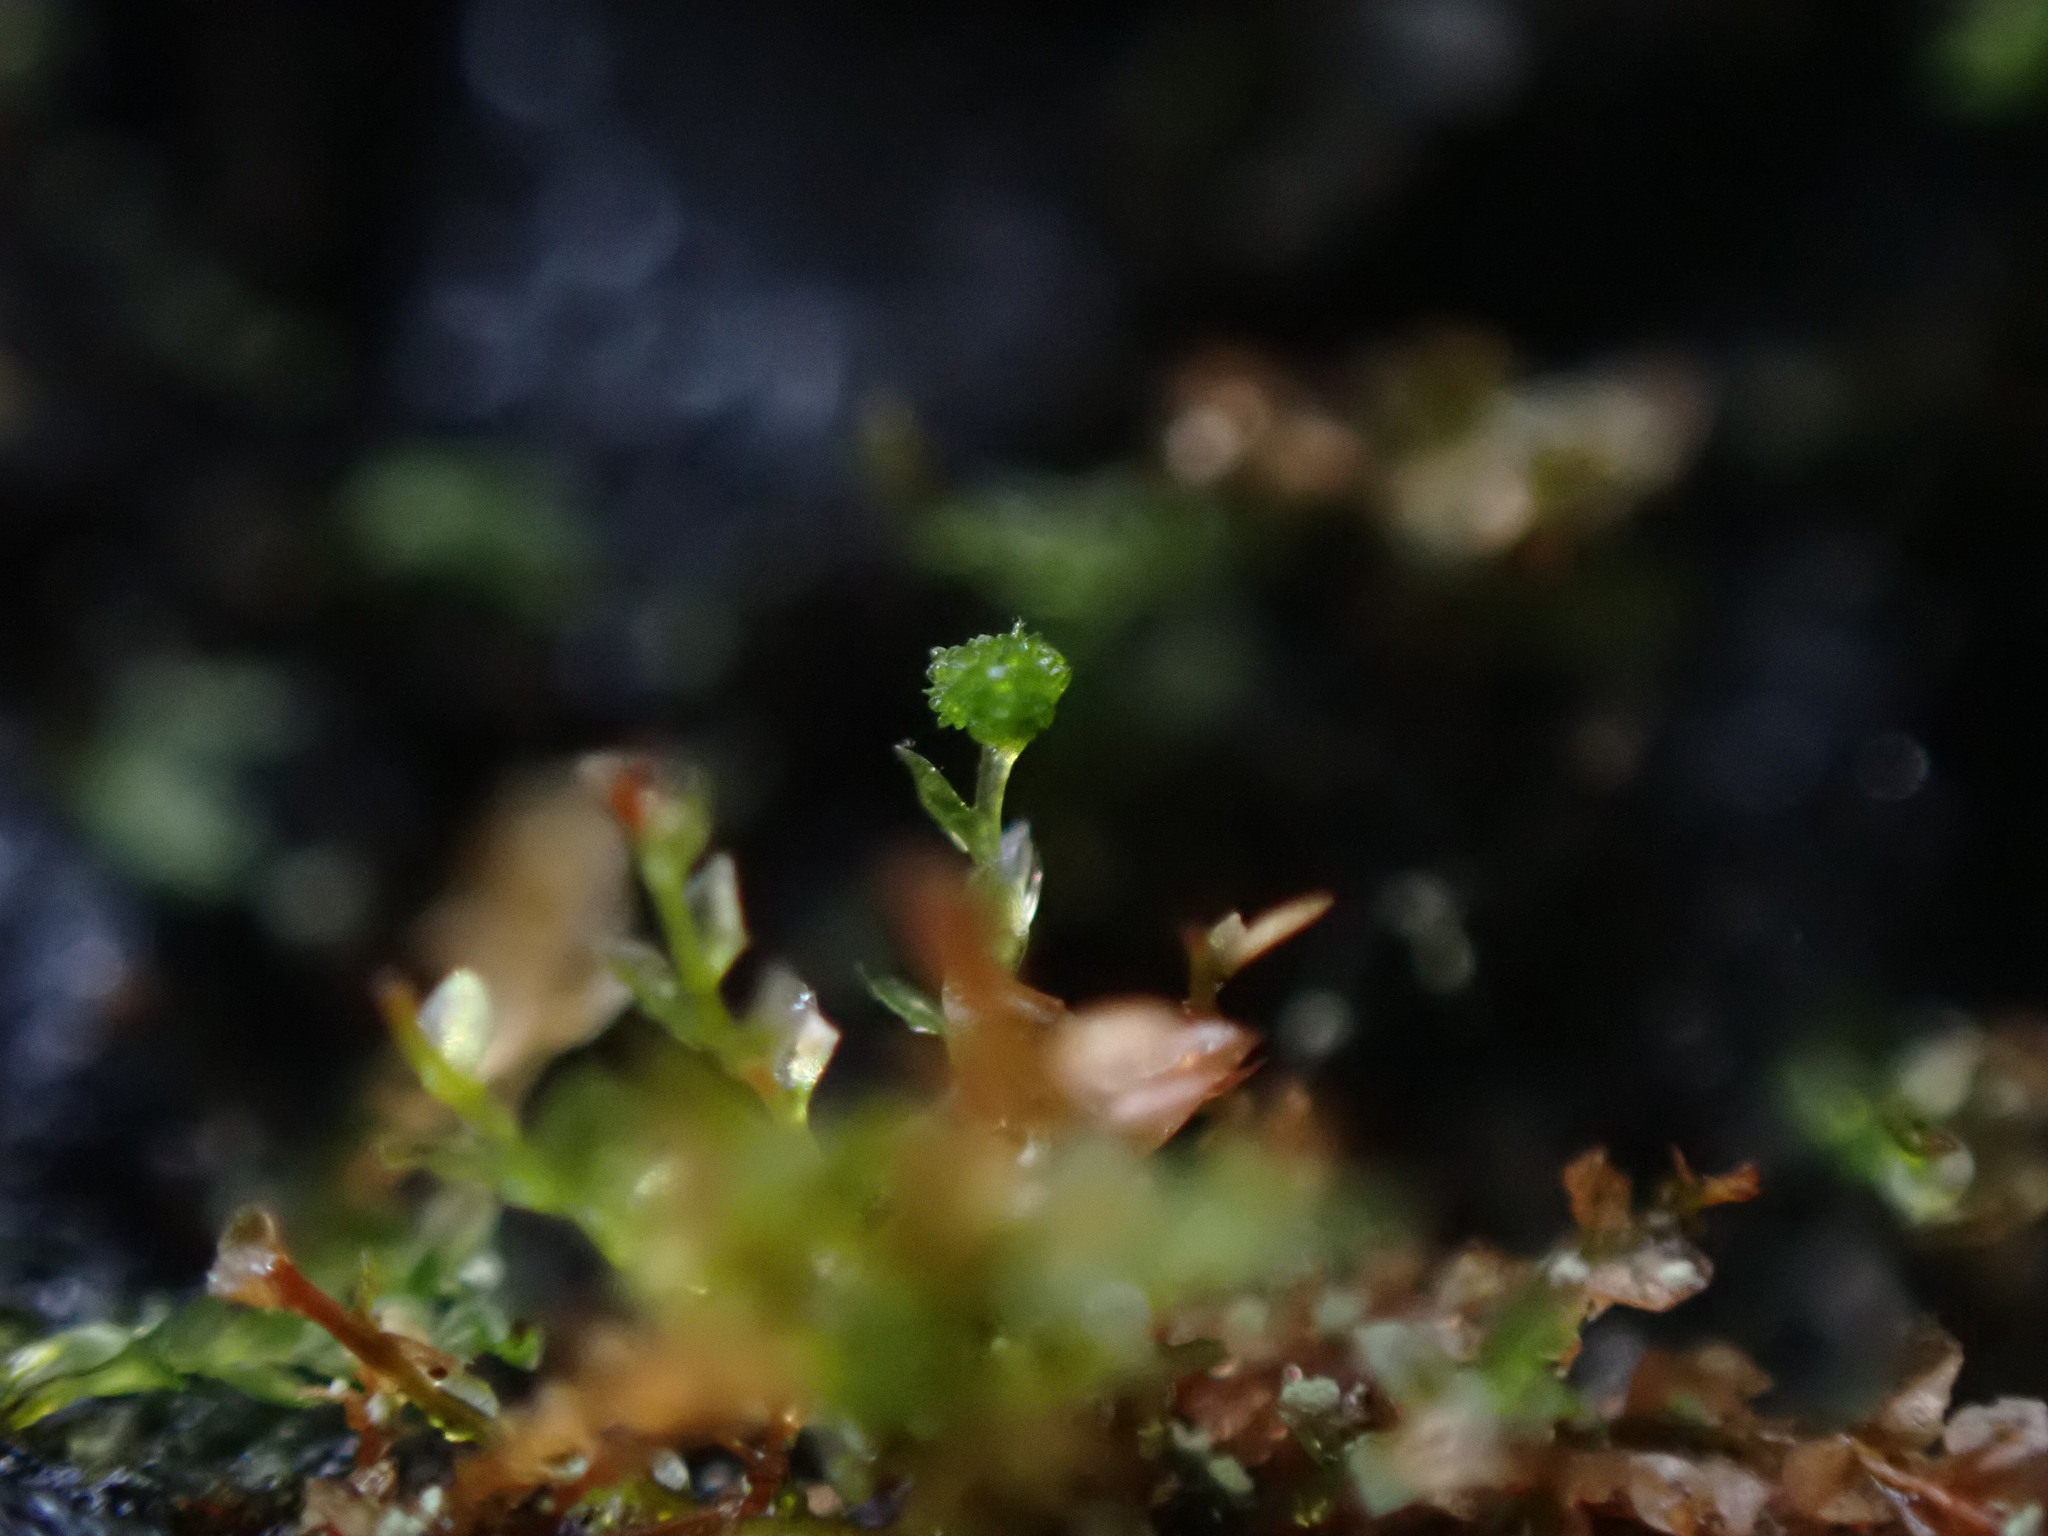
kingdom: Plantae
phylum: Bryophyta
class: Polytrichopsida
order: Tetraphidales
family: Tetraphidaceae
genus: Tetraphis
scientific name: Tetraphis pellucida
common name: Common four-toothed moss
